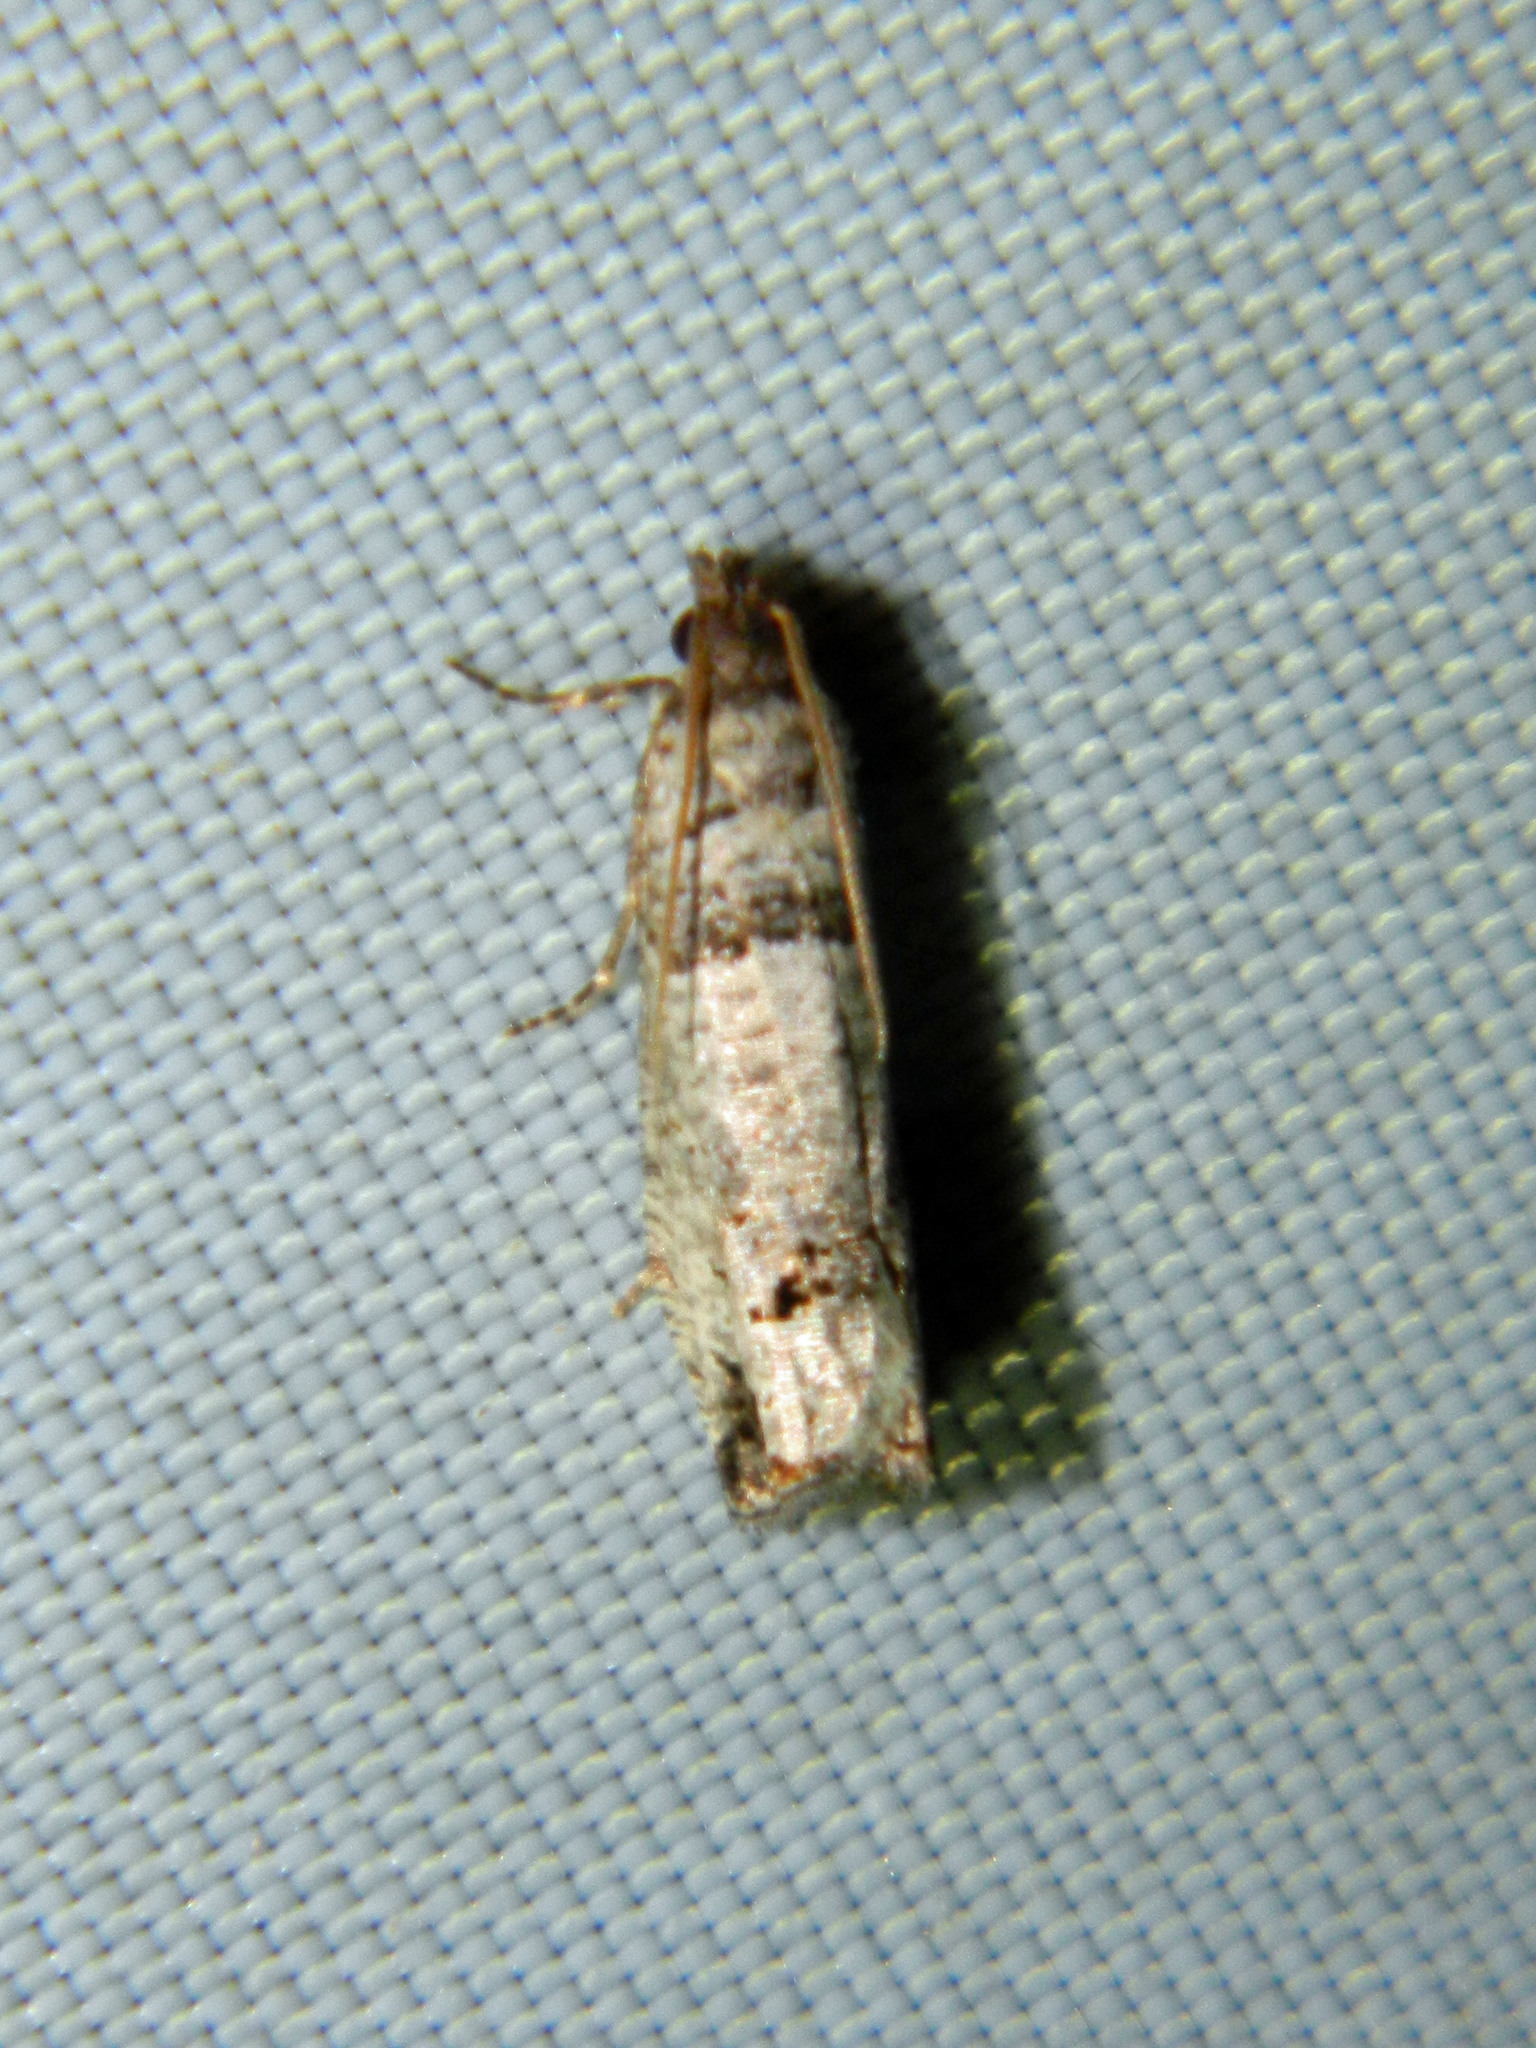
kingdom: Animalia
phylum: Arthropoda
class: Insecta
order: Lepidoptera
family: Tortricidae
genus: Notocelia
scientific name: Notocelia culminana
